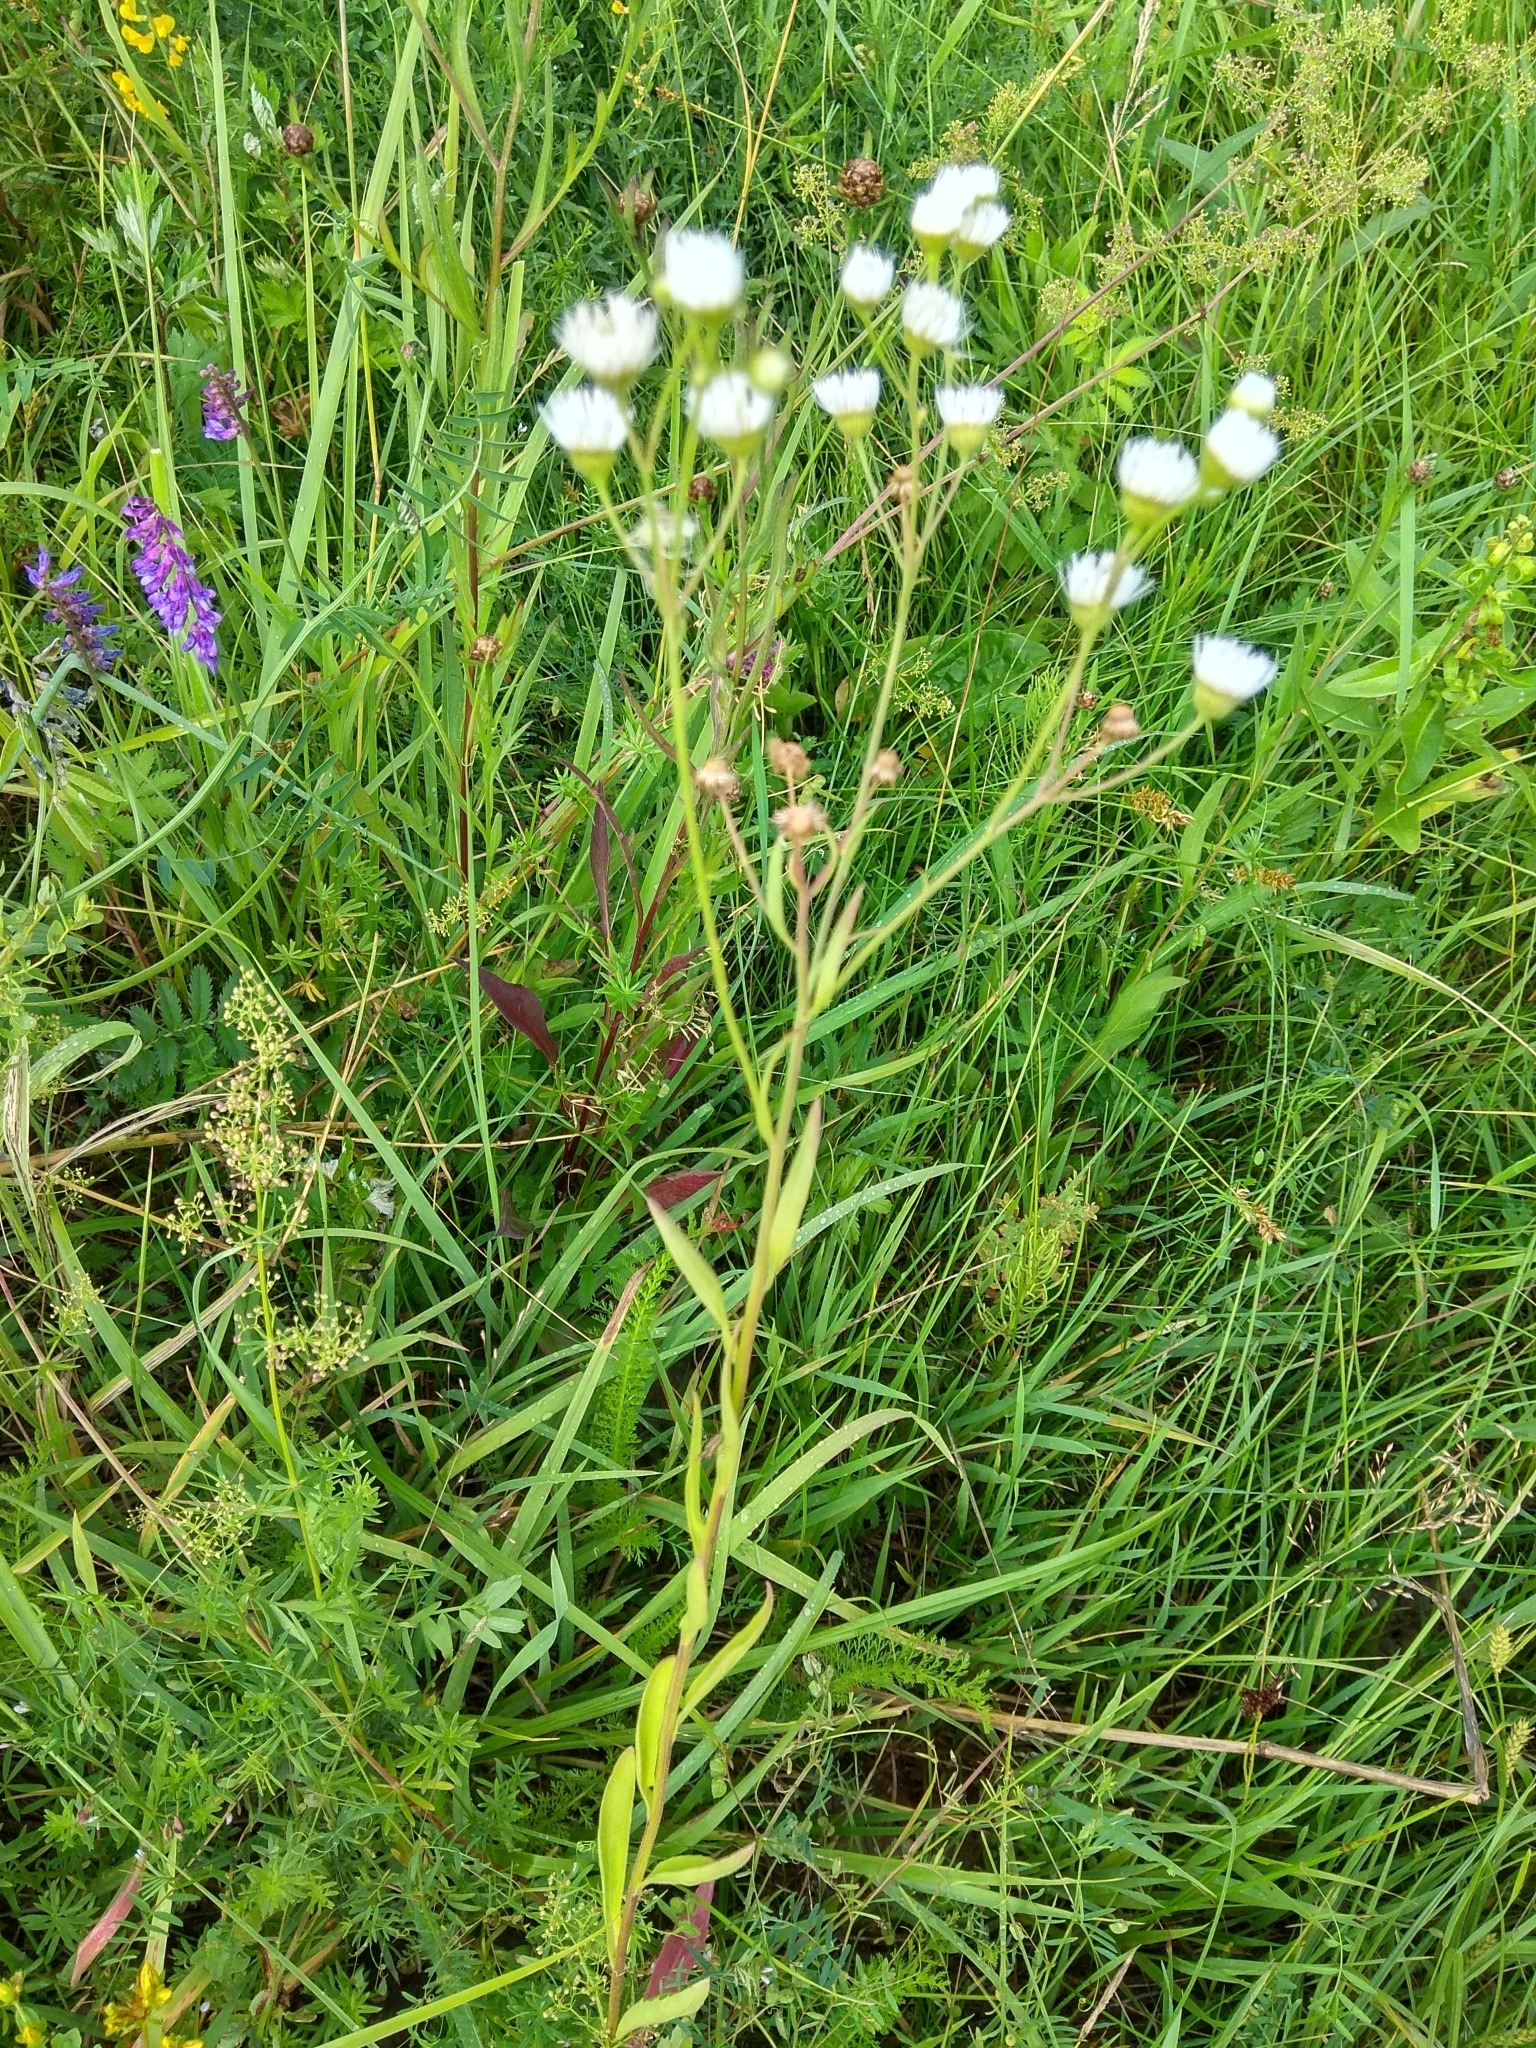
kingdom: Plantae
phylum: Tracheophyta
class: Magnoliopsida
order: Asterales
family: Asteraceae
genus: Erigeron
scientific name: Erigeron annuus
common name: Tall fleabane
